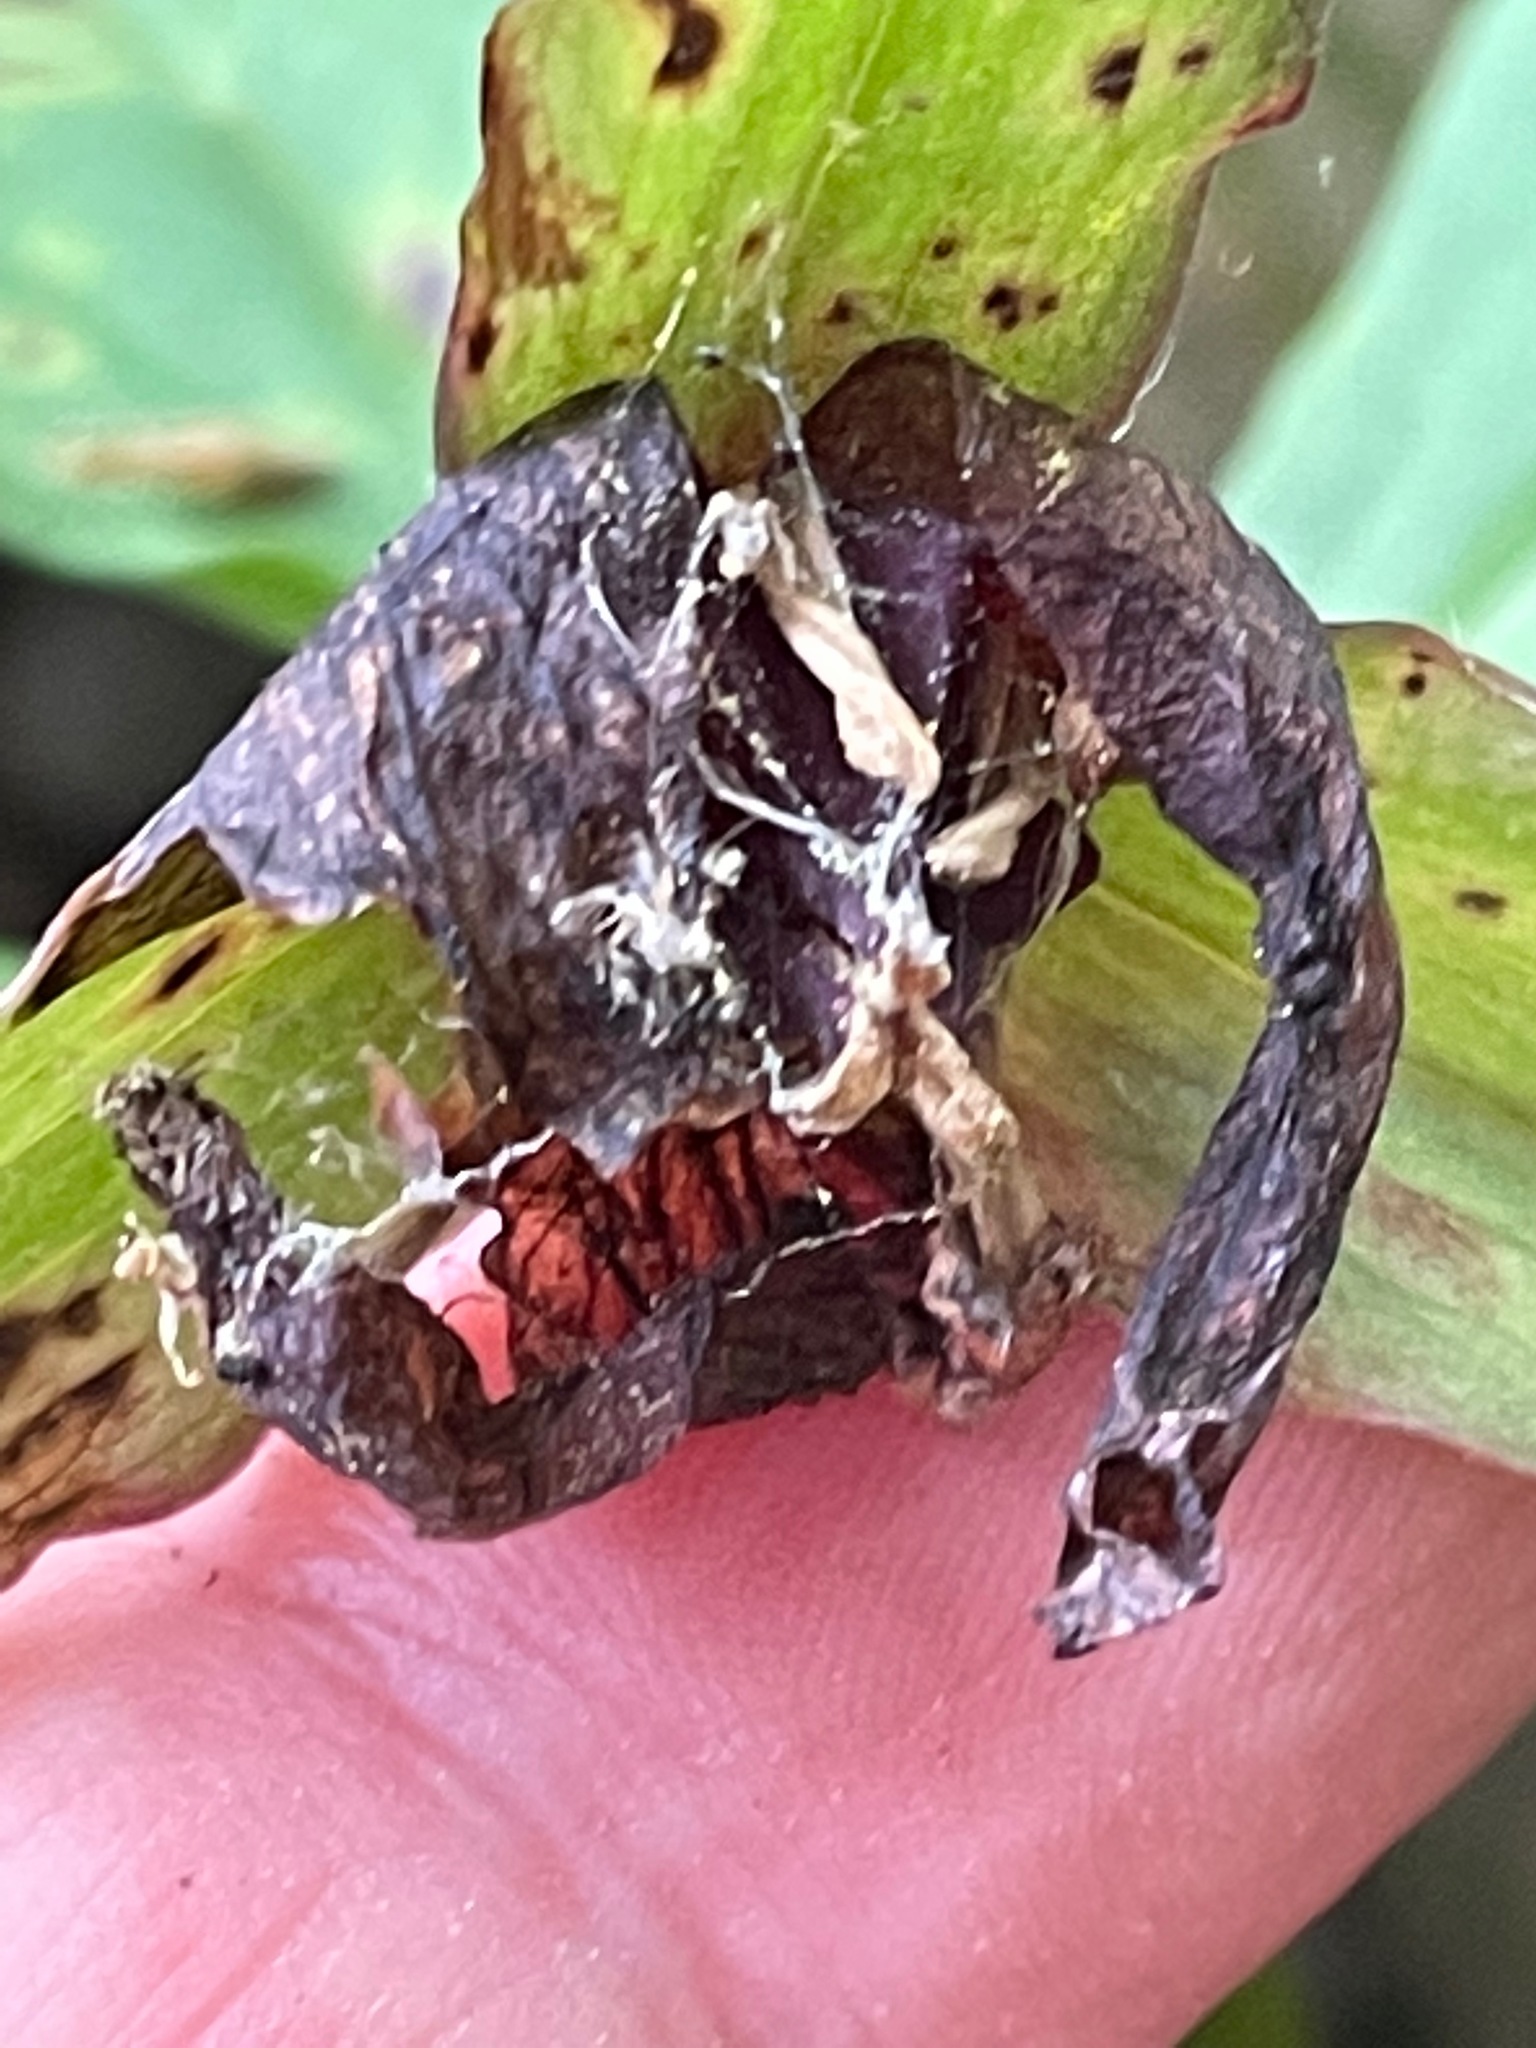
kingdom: Plantae
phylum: Tracheophyta
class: Liliopsida
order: Liliales
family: Melanthiaceae
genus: Trillium
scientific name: Trillium erectum
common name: Purple trillium
